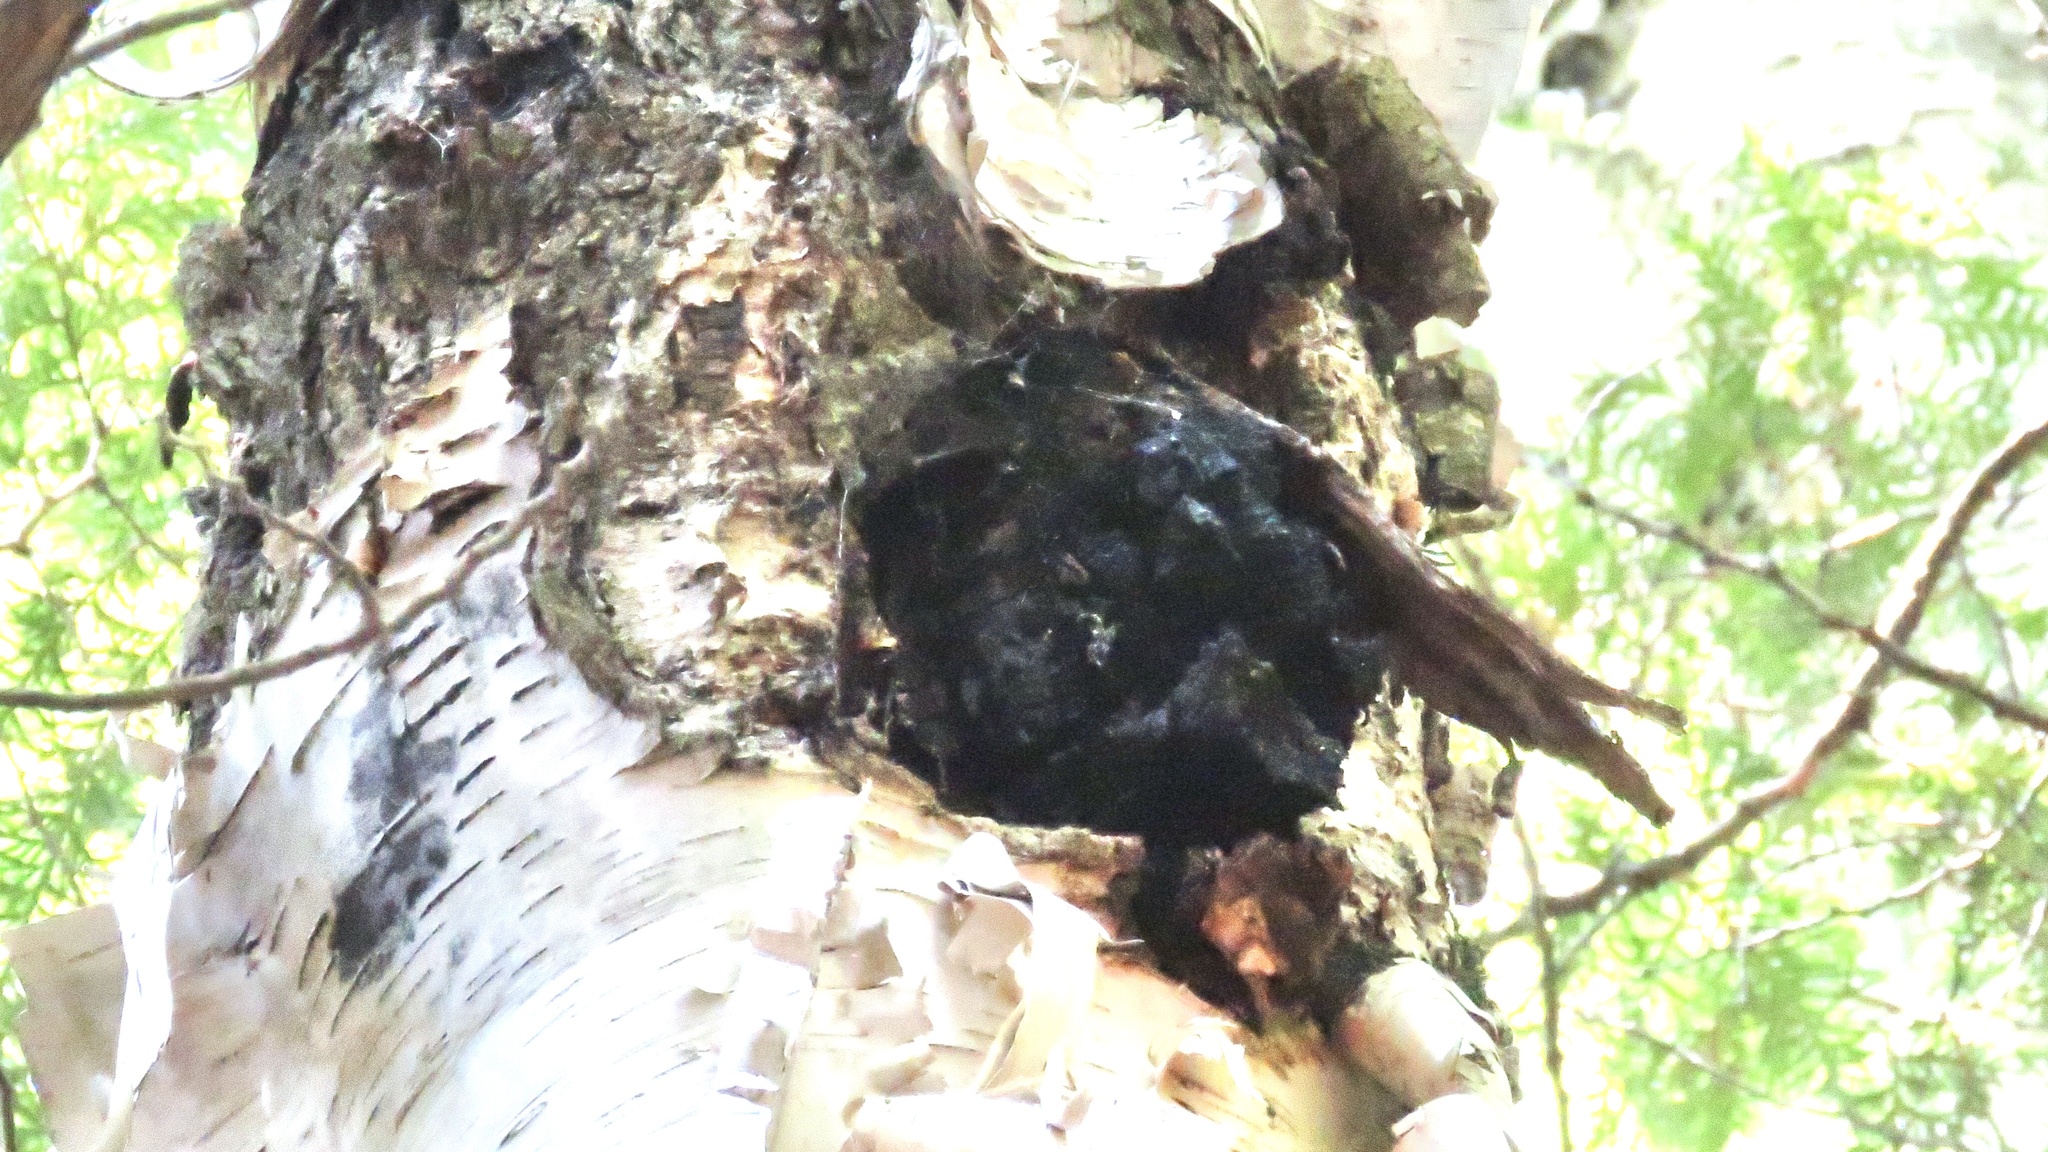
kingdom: Fungi
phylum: Basidiomycota
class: Agaricomycetes
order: Hymenochaetales
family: Hymenochaetaceae
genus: Inonotus
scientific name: Inonotus obliquus
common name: Chaga
